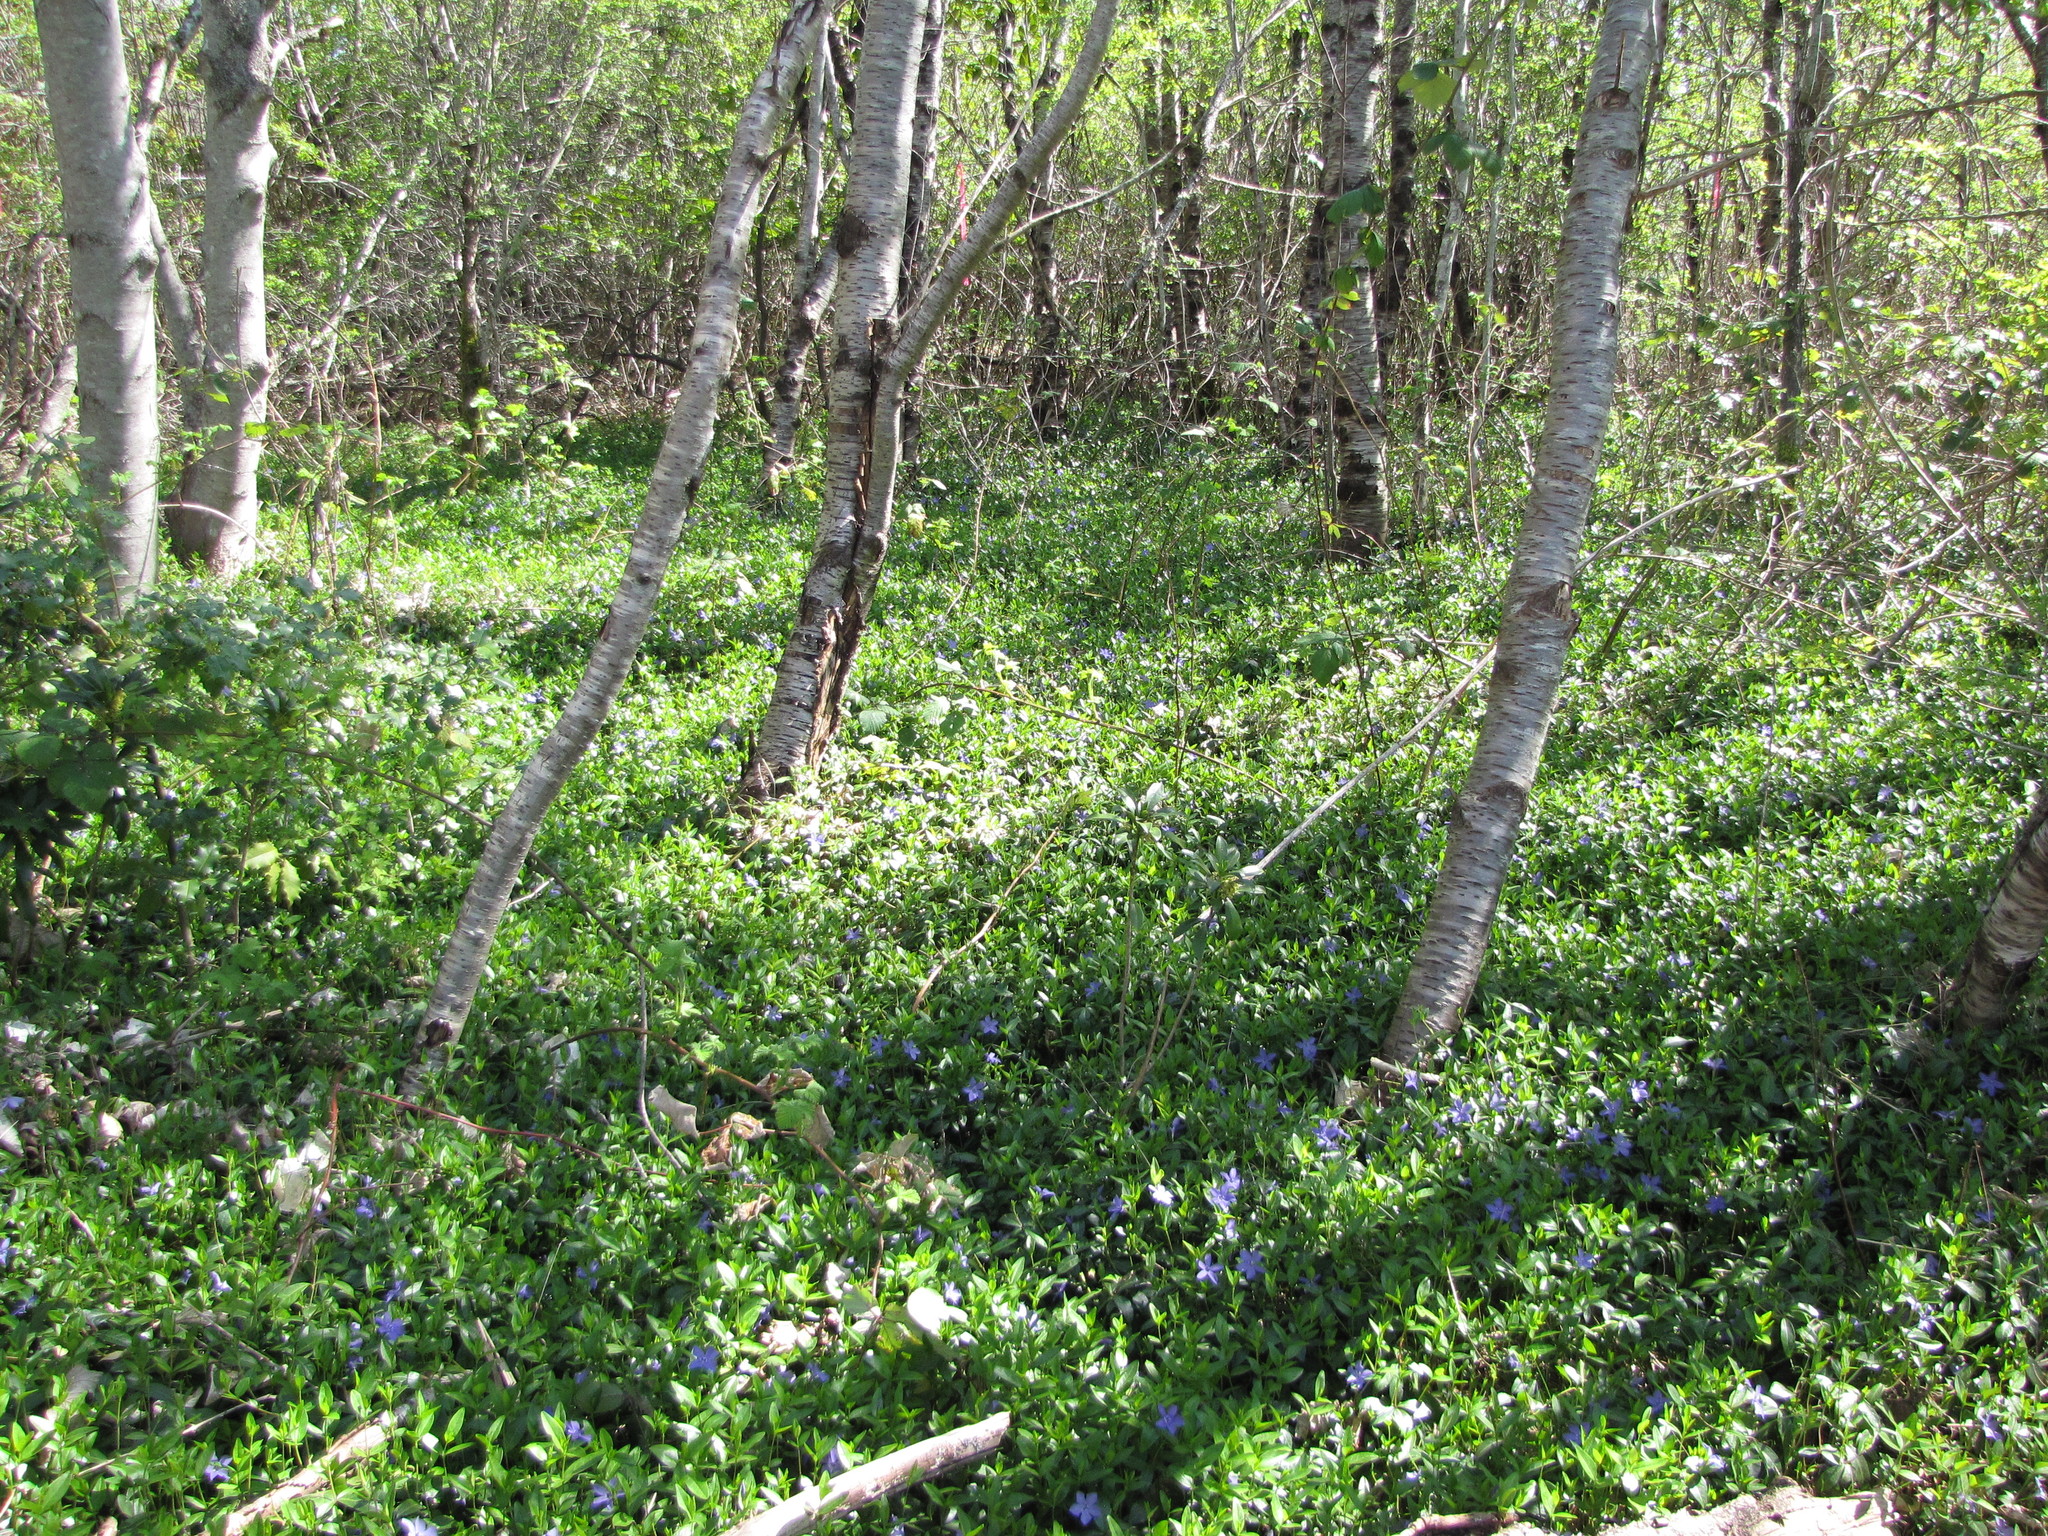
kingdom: Plantae
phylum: Tracheophyta
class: Magnoliopsida
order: Gentianales
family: Apocynaceae
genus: Vinca
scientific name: Vinca minor
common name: Lesser periwinkle
